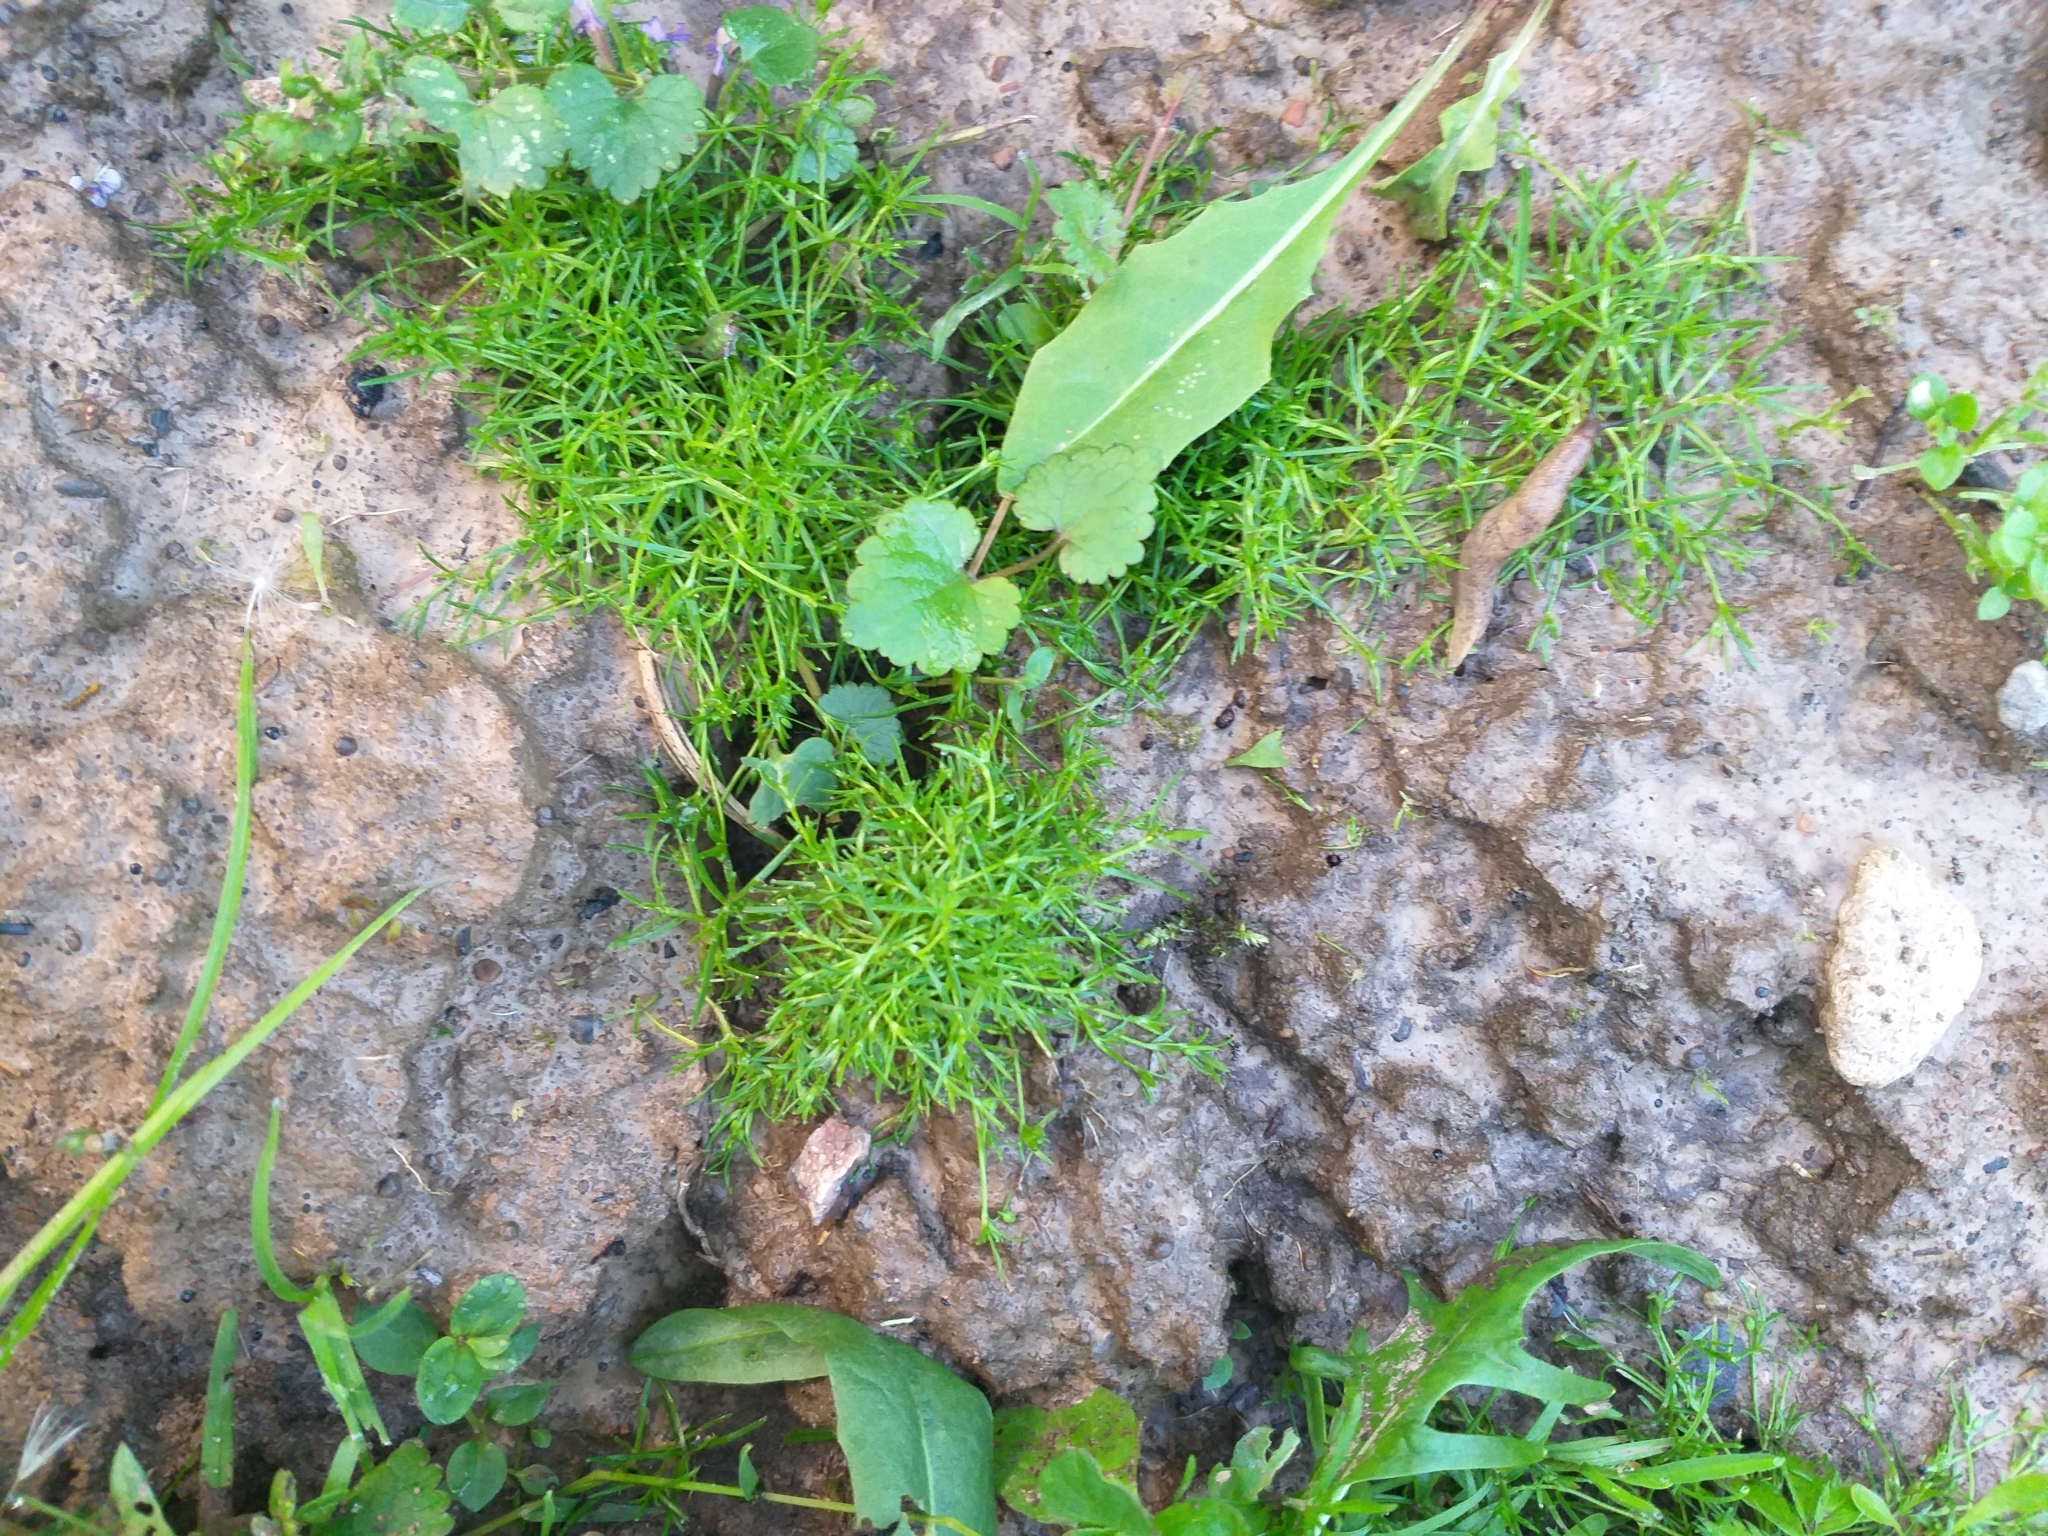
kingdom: Plantae
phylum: Tracheophyta
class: Magnoliopsida
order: Caryophyllales
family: Caryophyllaceae
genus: Sagina
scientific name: Sagina procumbens
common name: Procumbent pearlwort
